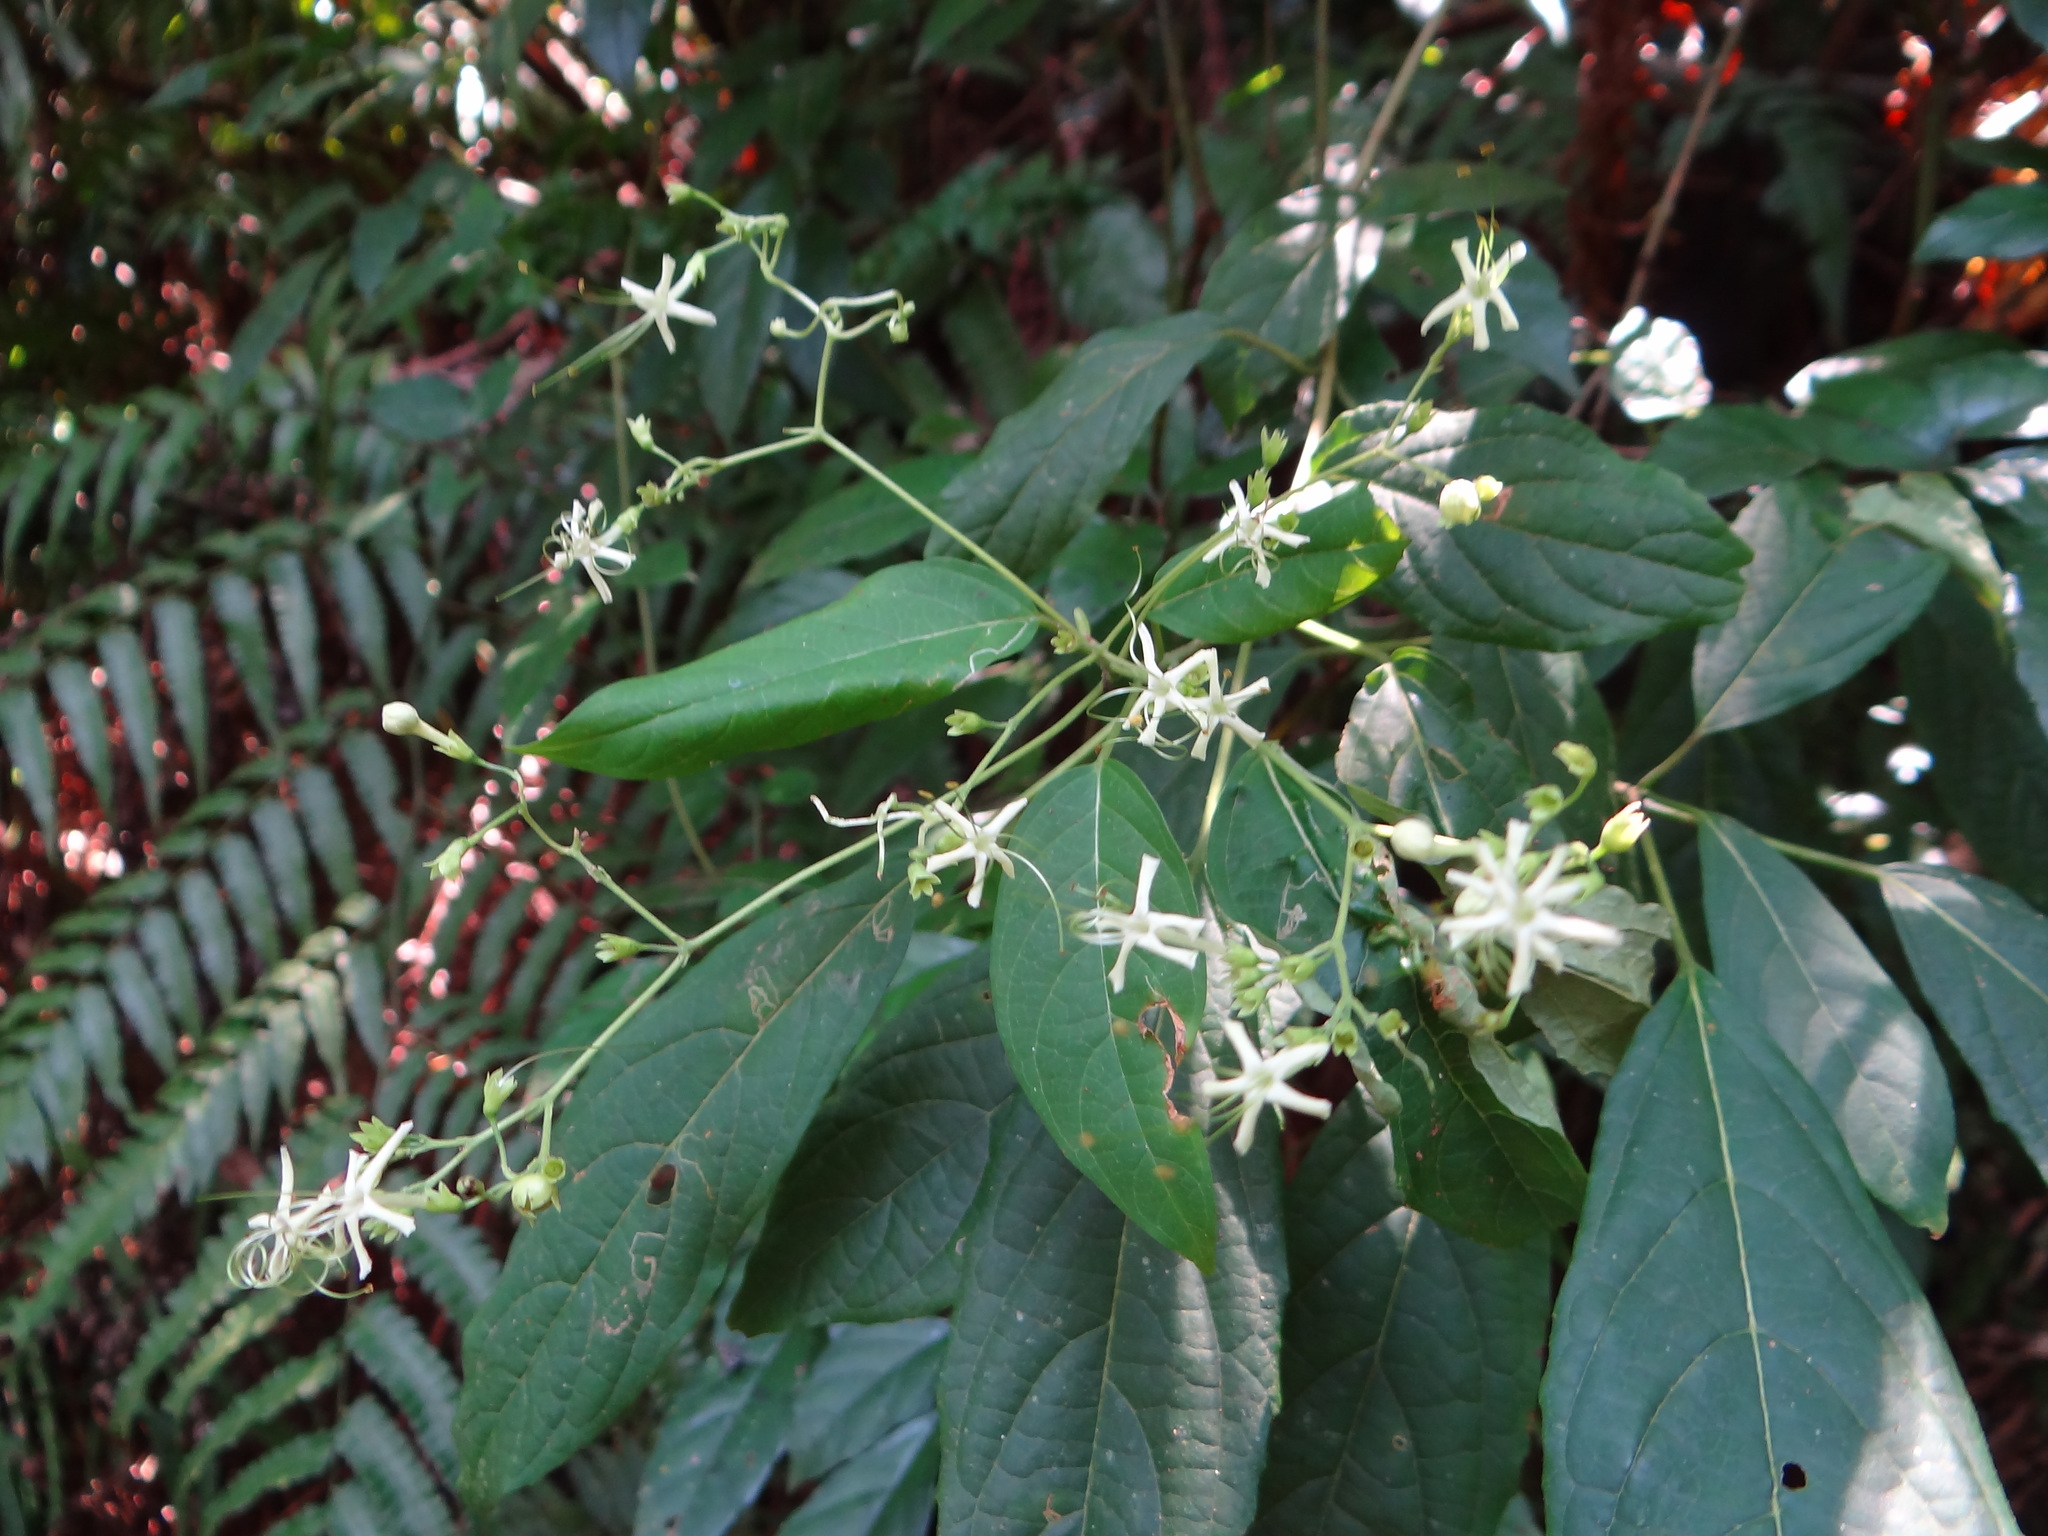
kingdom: Plantae
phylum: Tracheophyta
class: Magnoliopsida
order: Lamiales
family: Lamiaceae
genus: Clerodendrum
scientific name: Clerodendrum cyrtophyllum
